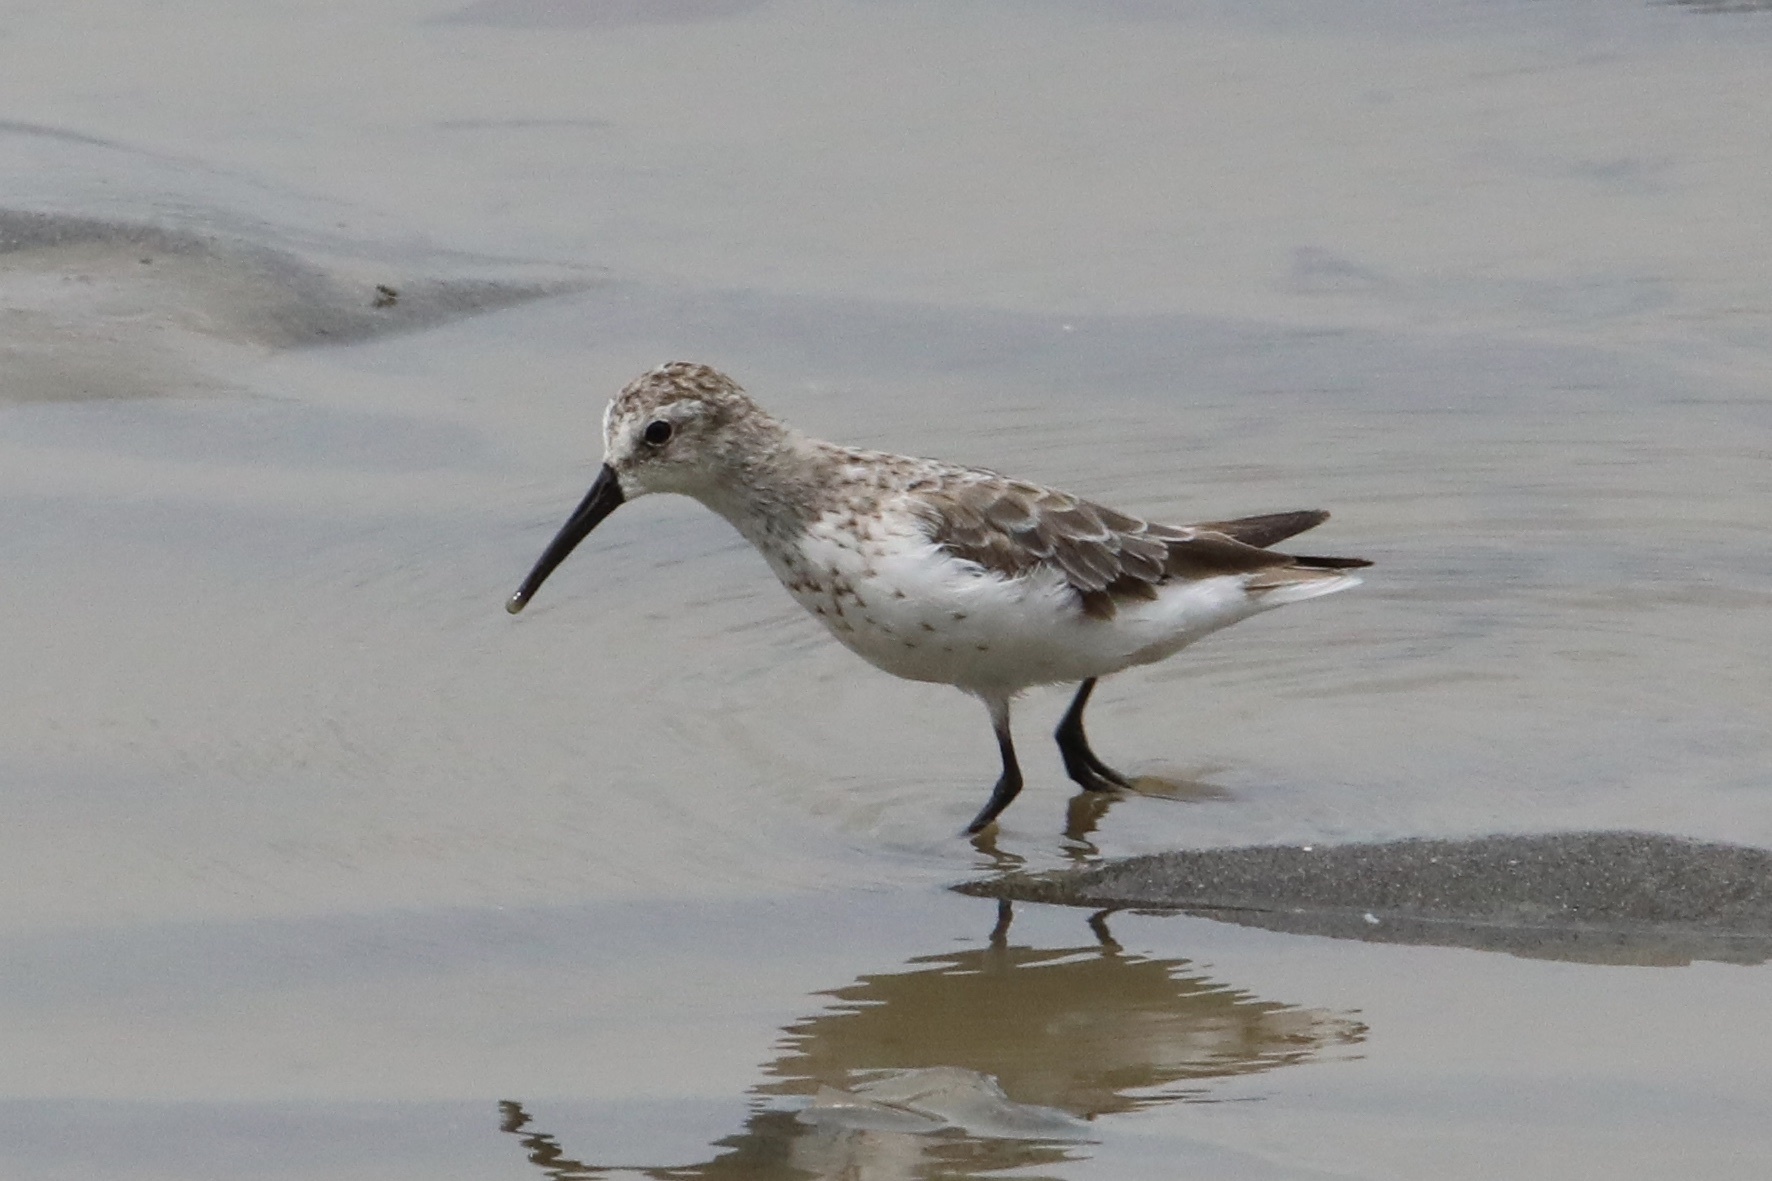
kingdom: Animalia
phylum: Chordata
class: Aves
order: Charadriiformes
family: Scolopacidae
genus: Calidris
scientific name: Calidris mauri
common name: Western sandpiper
